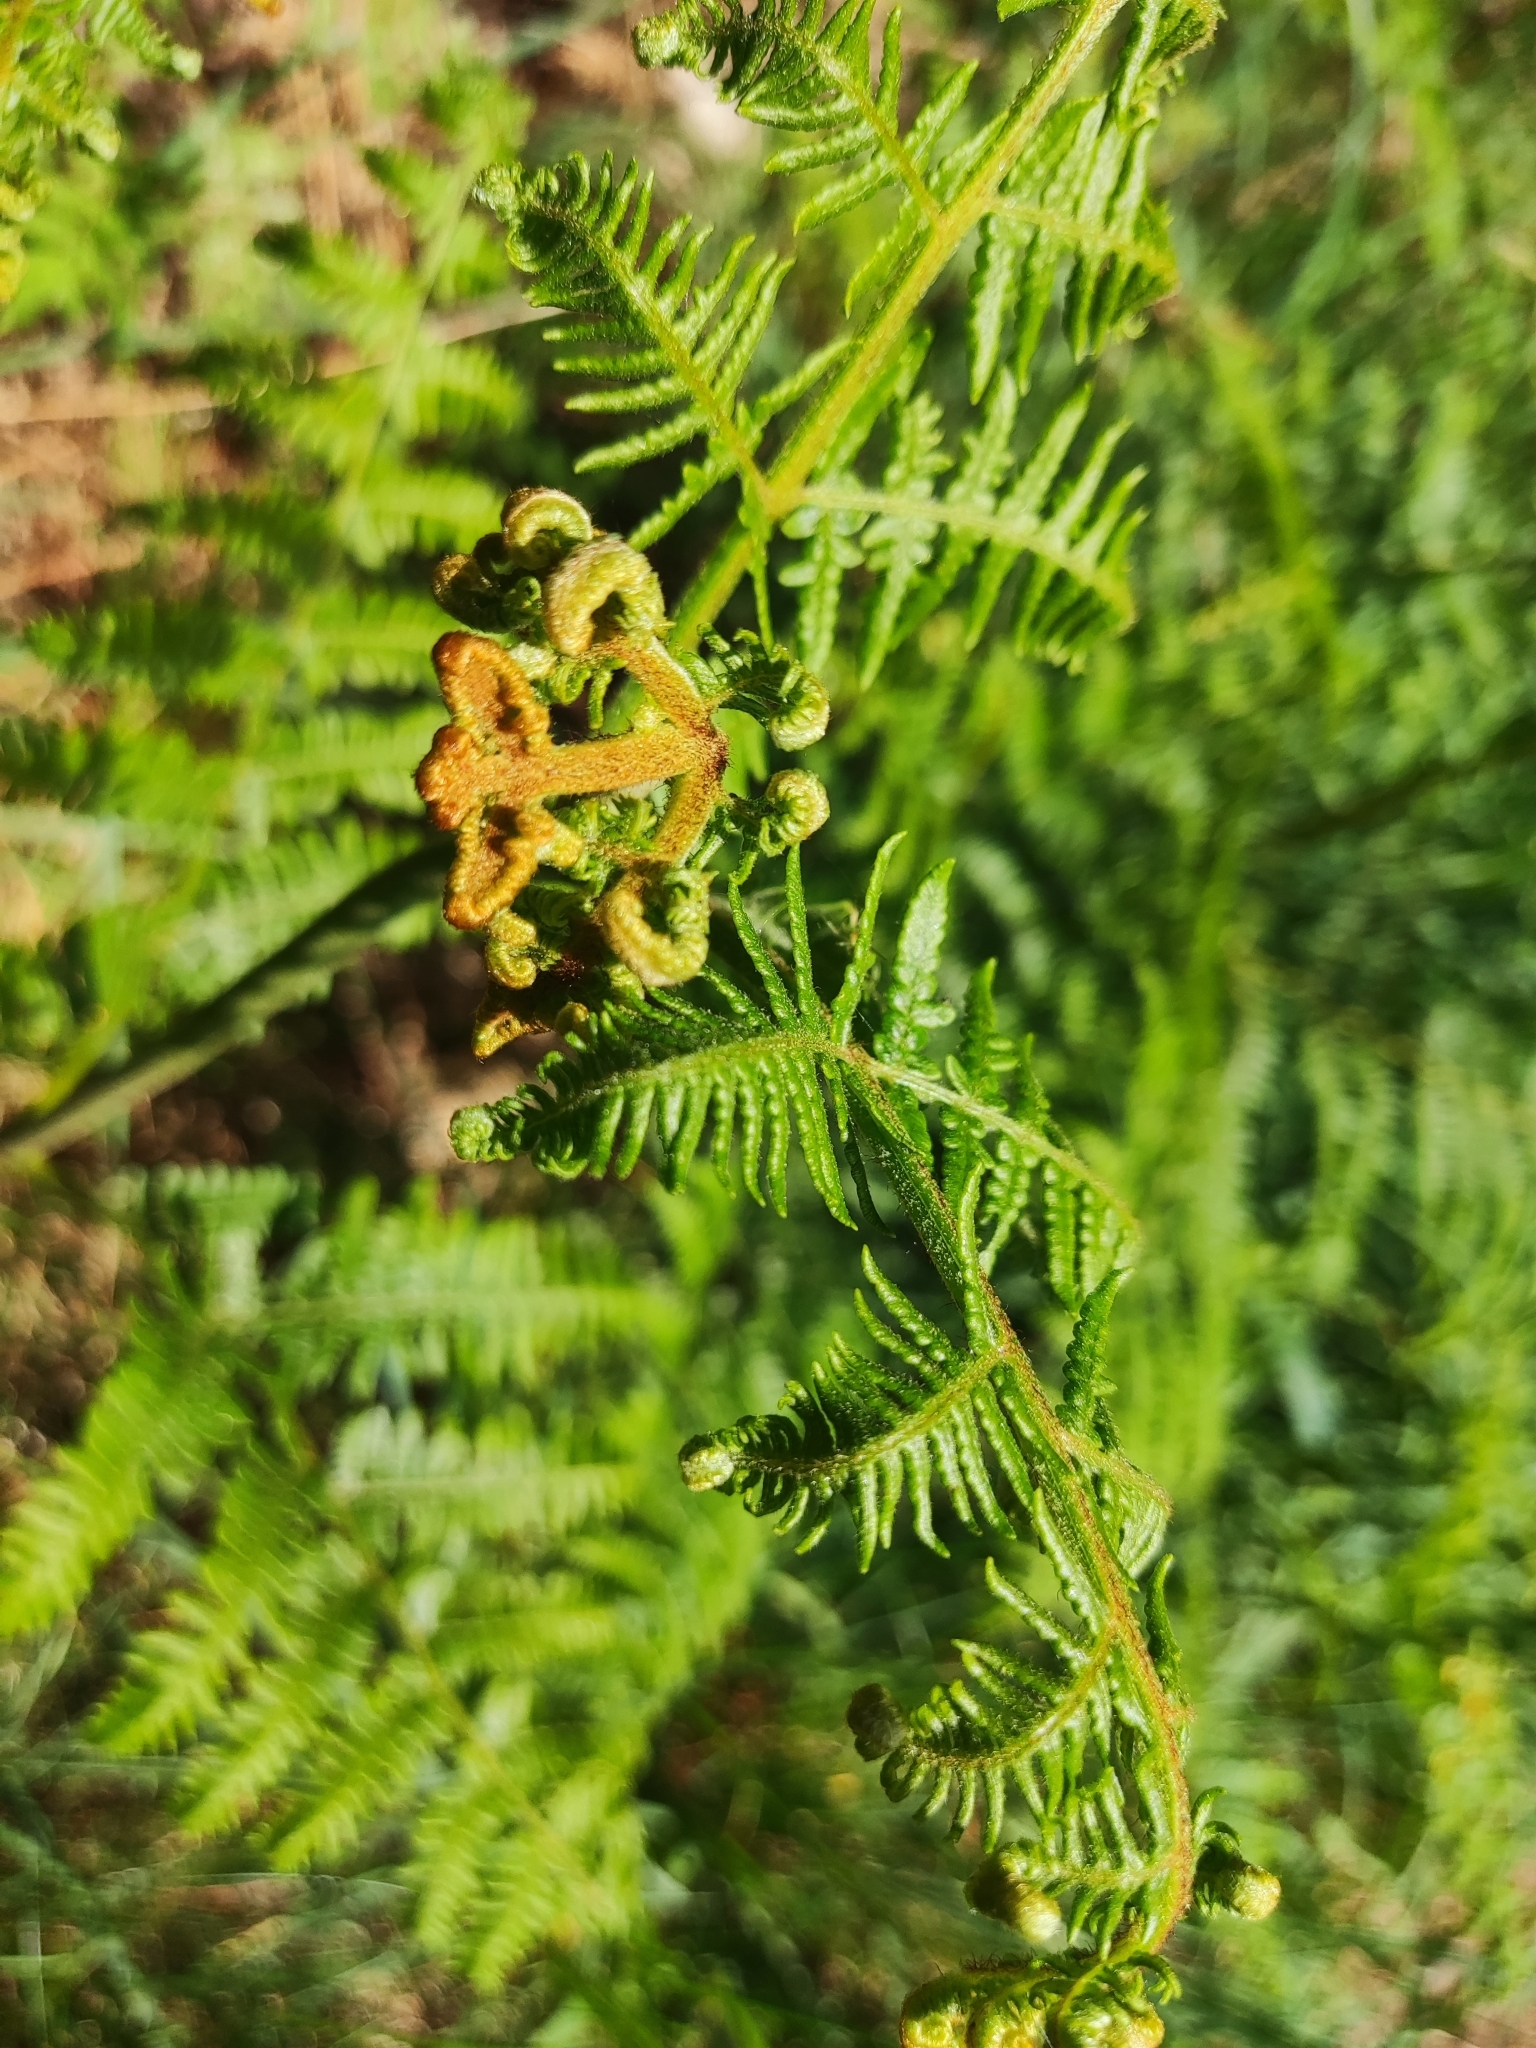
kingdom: Plantae
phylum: Tracheophyta
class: Polypodiopsida
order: Polypodiales
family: Dennstaedtiaceae
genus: Pteridium
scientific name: Pteridium aquilinum
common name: Bracken
